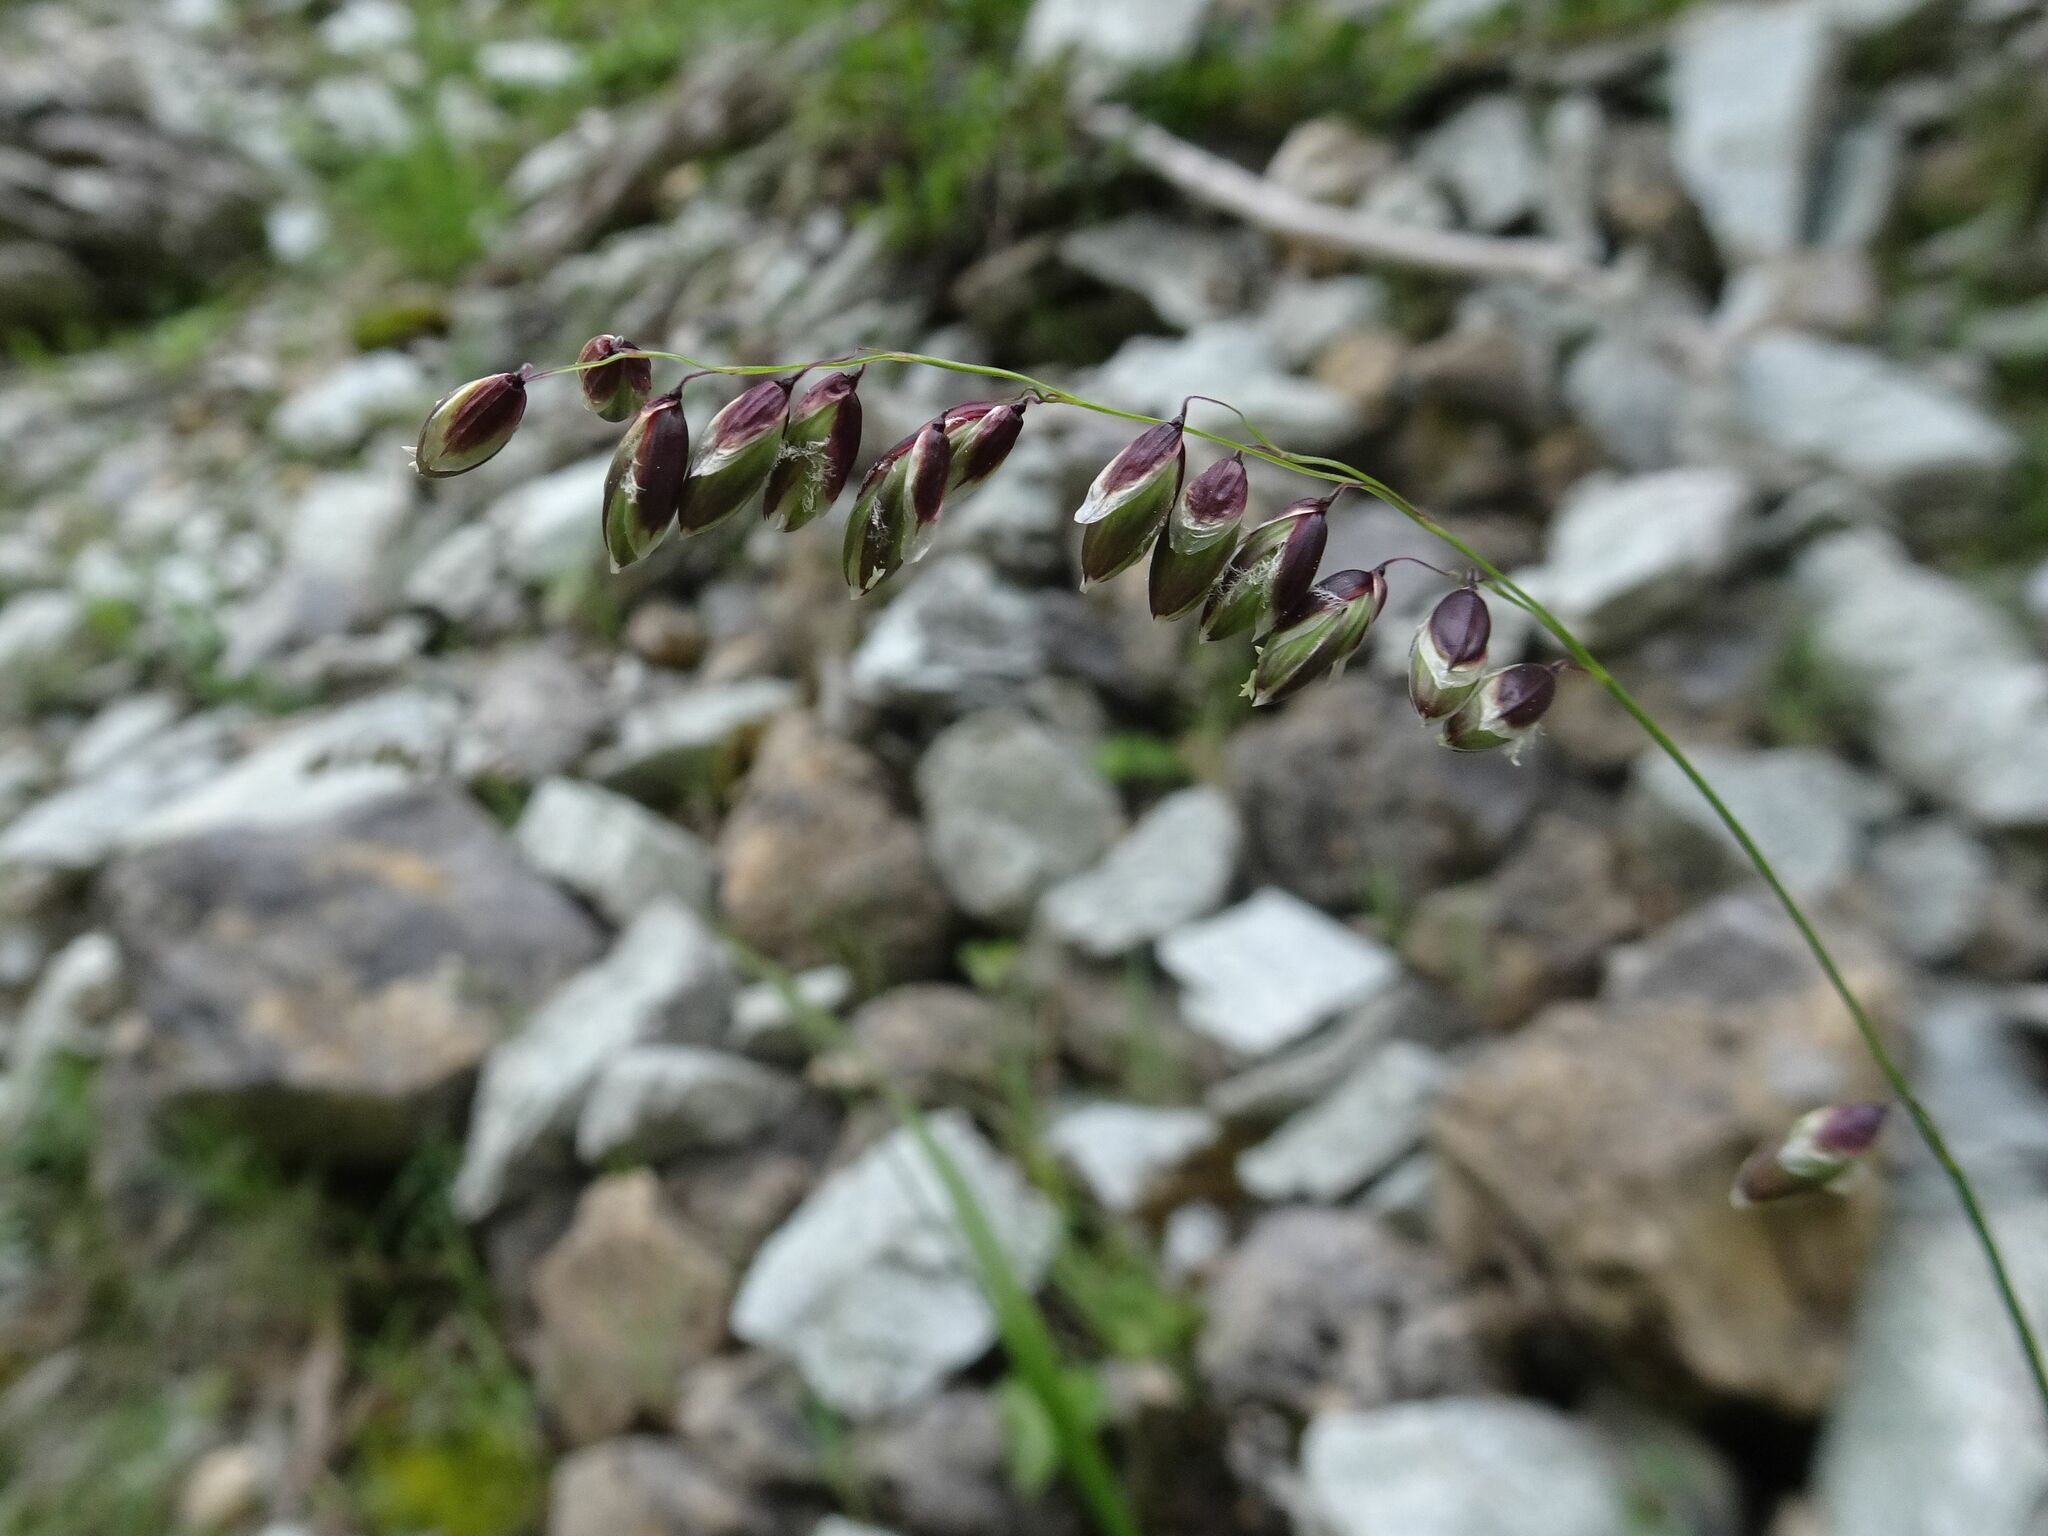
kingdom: Plantae
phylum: Tracheophyta
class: Liliopsida
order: Poales
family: Poaceae
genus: Melica
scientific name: Melica nutans
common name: Mountain melick
